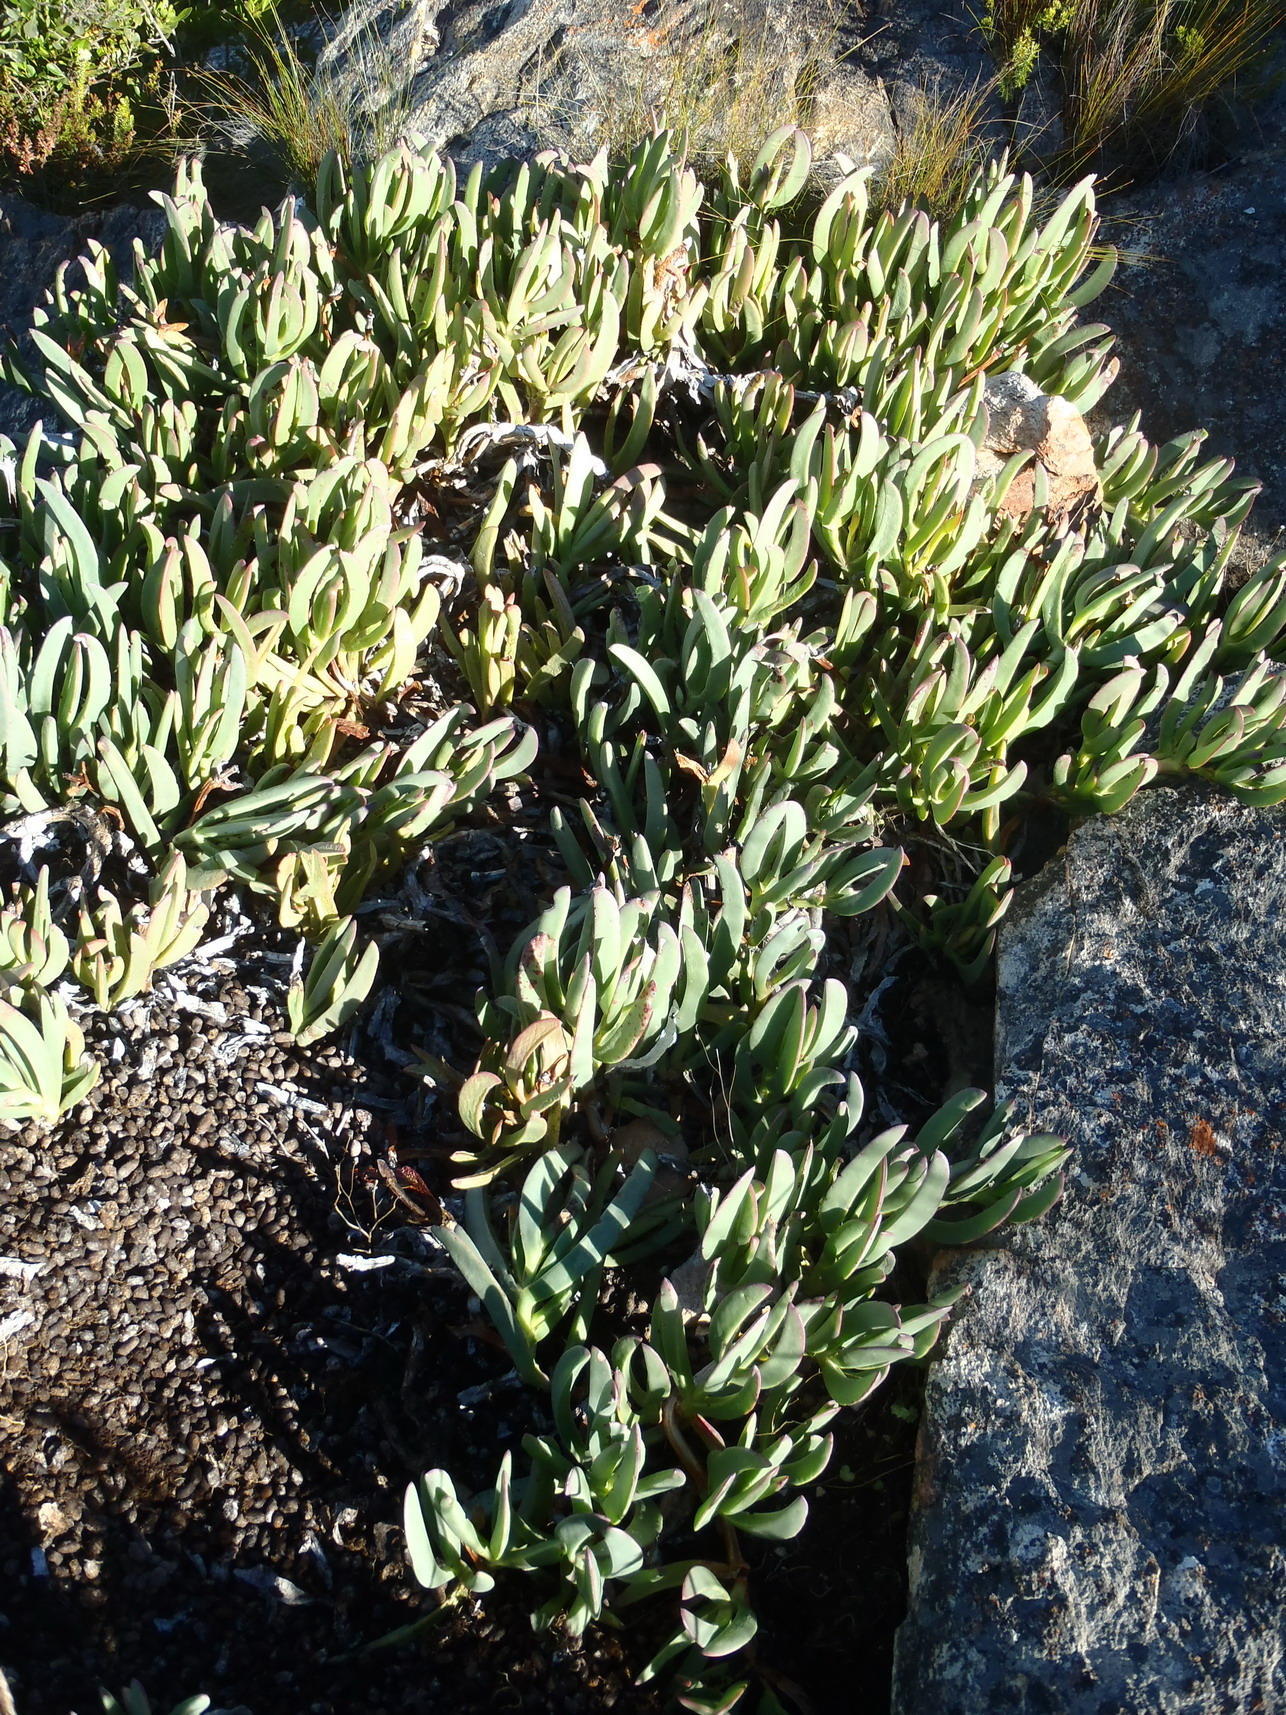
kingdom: Plantae
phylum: Tracheophyta
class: Magnoliopsida
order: Caryophyllales
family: Aizoaceae
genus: Carpobrotus
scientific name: Carpobrotus mellei
